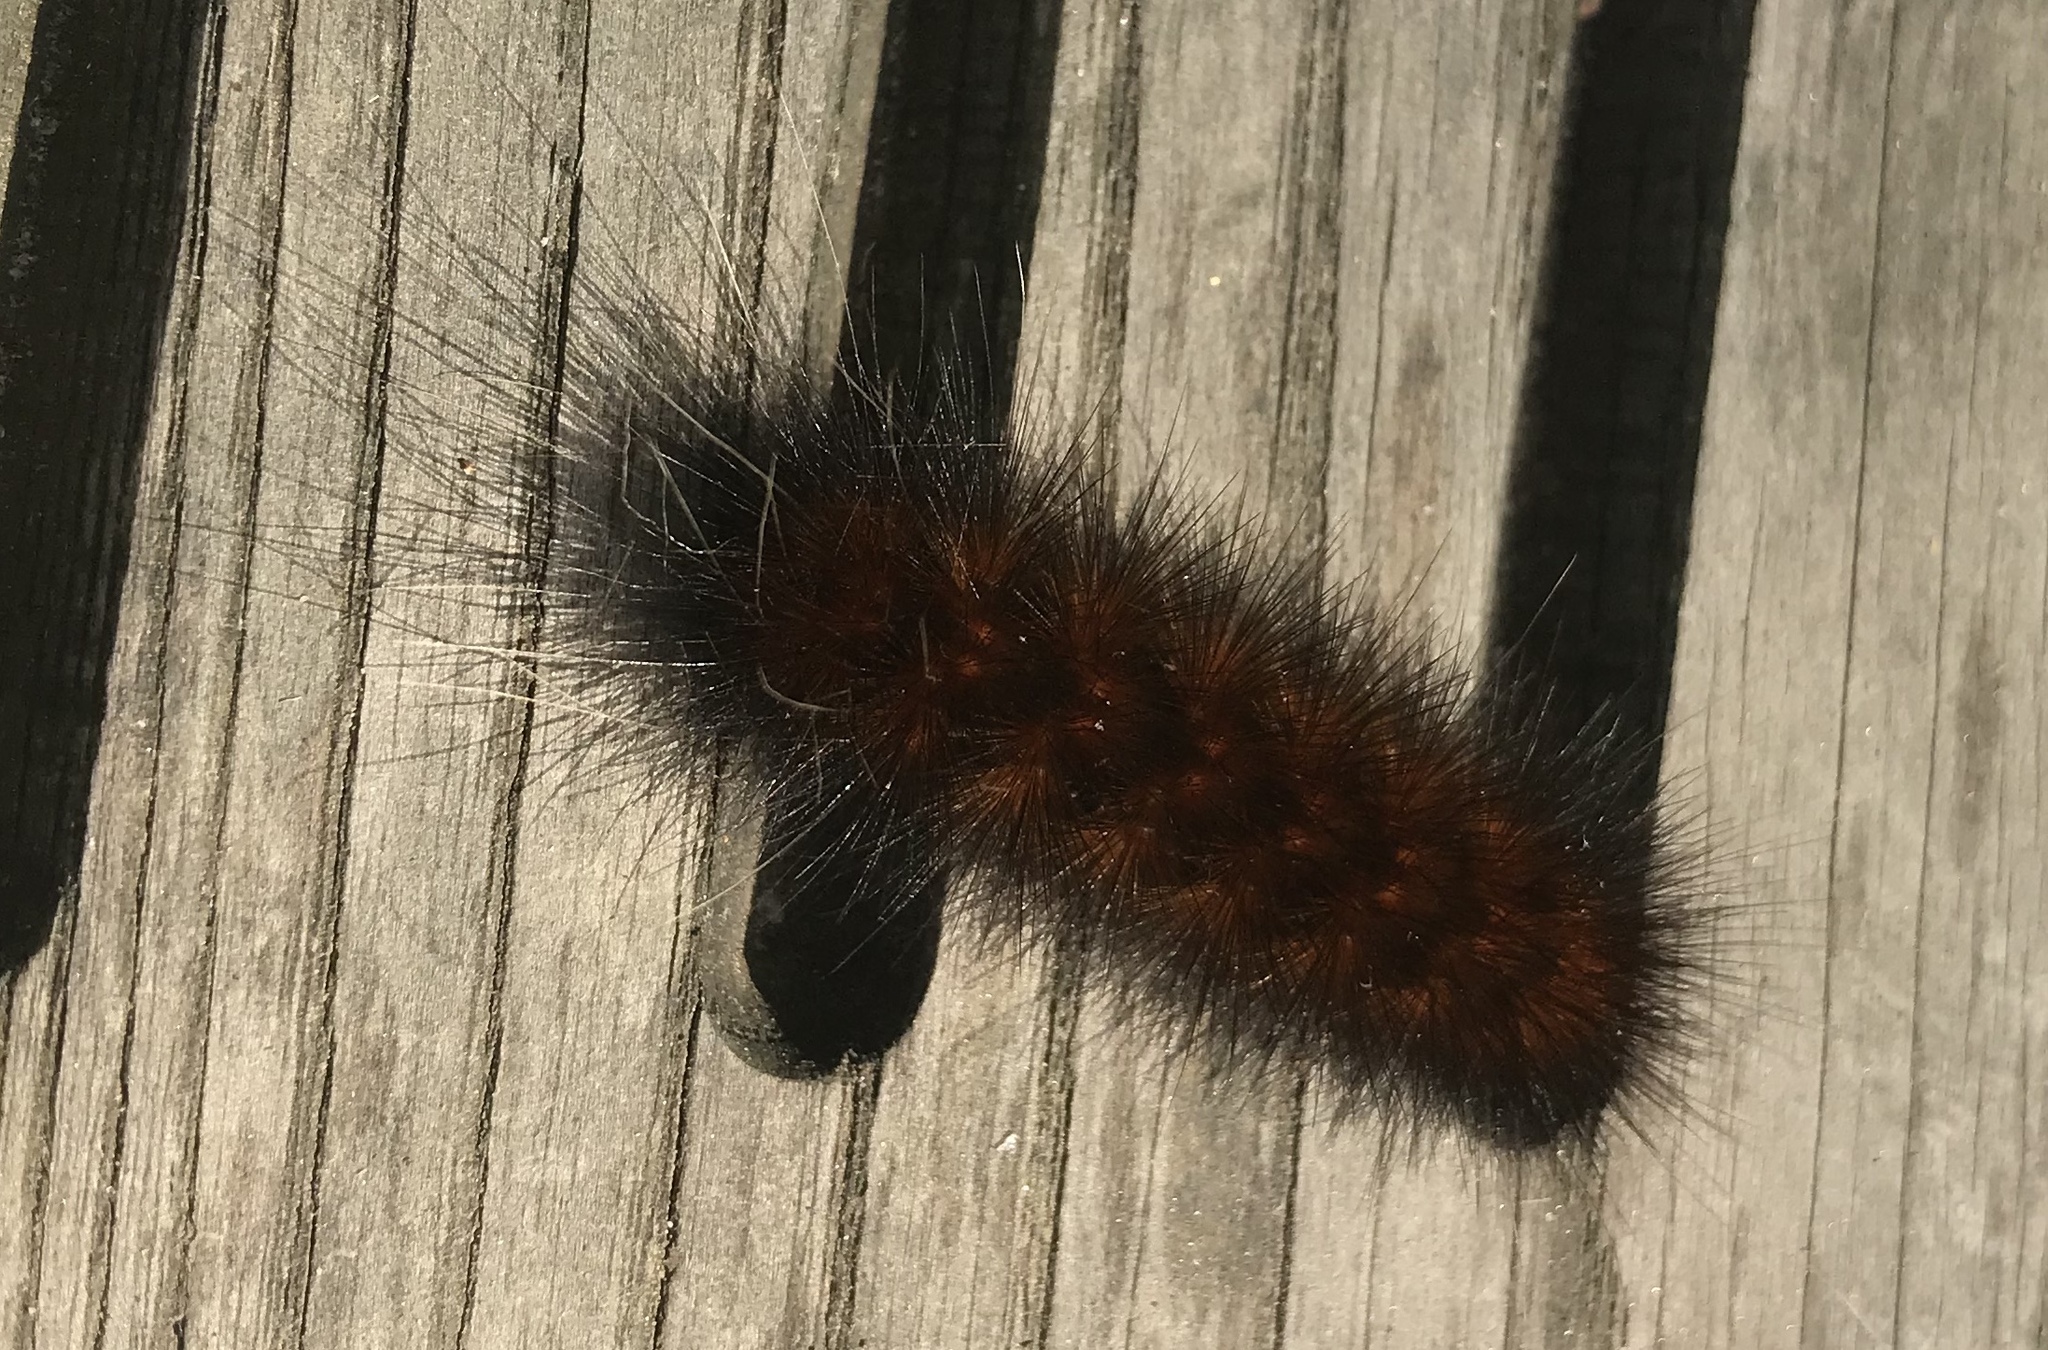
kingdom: Animalia
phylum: Arthropoda
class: Insecta
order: Lepidoptera
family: Erebidae
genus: Spilosoma
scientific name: Spilosoma virginica
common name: Virginia tiger moth
